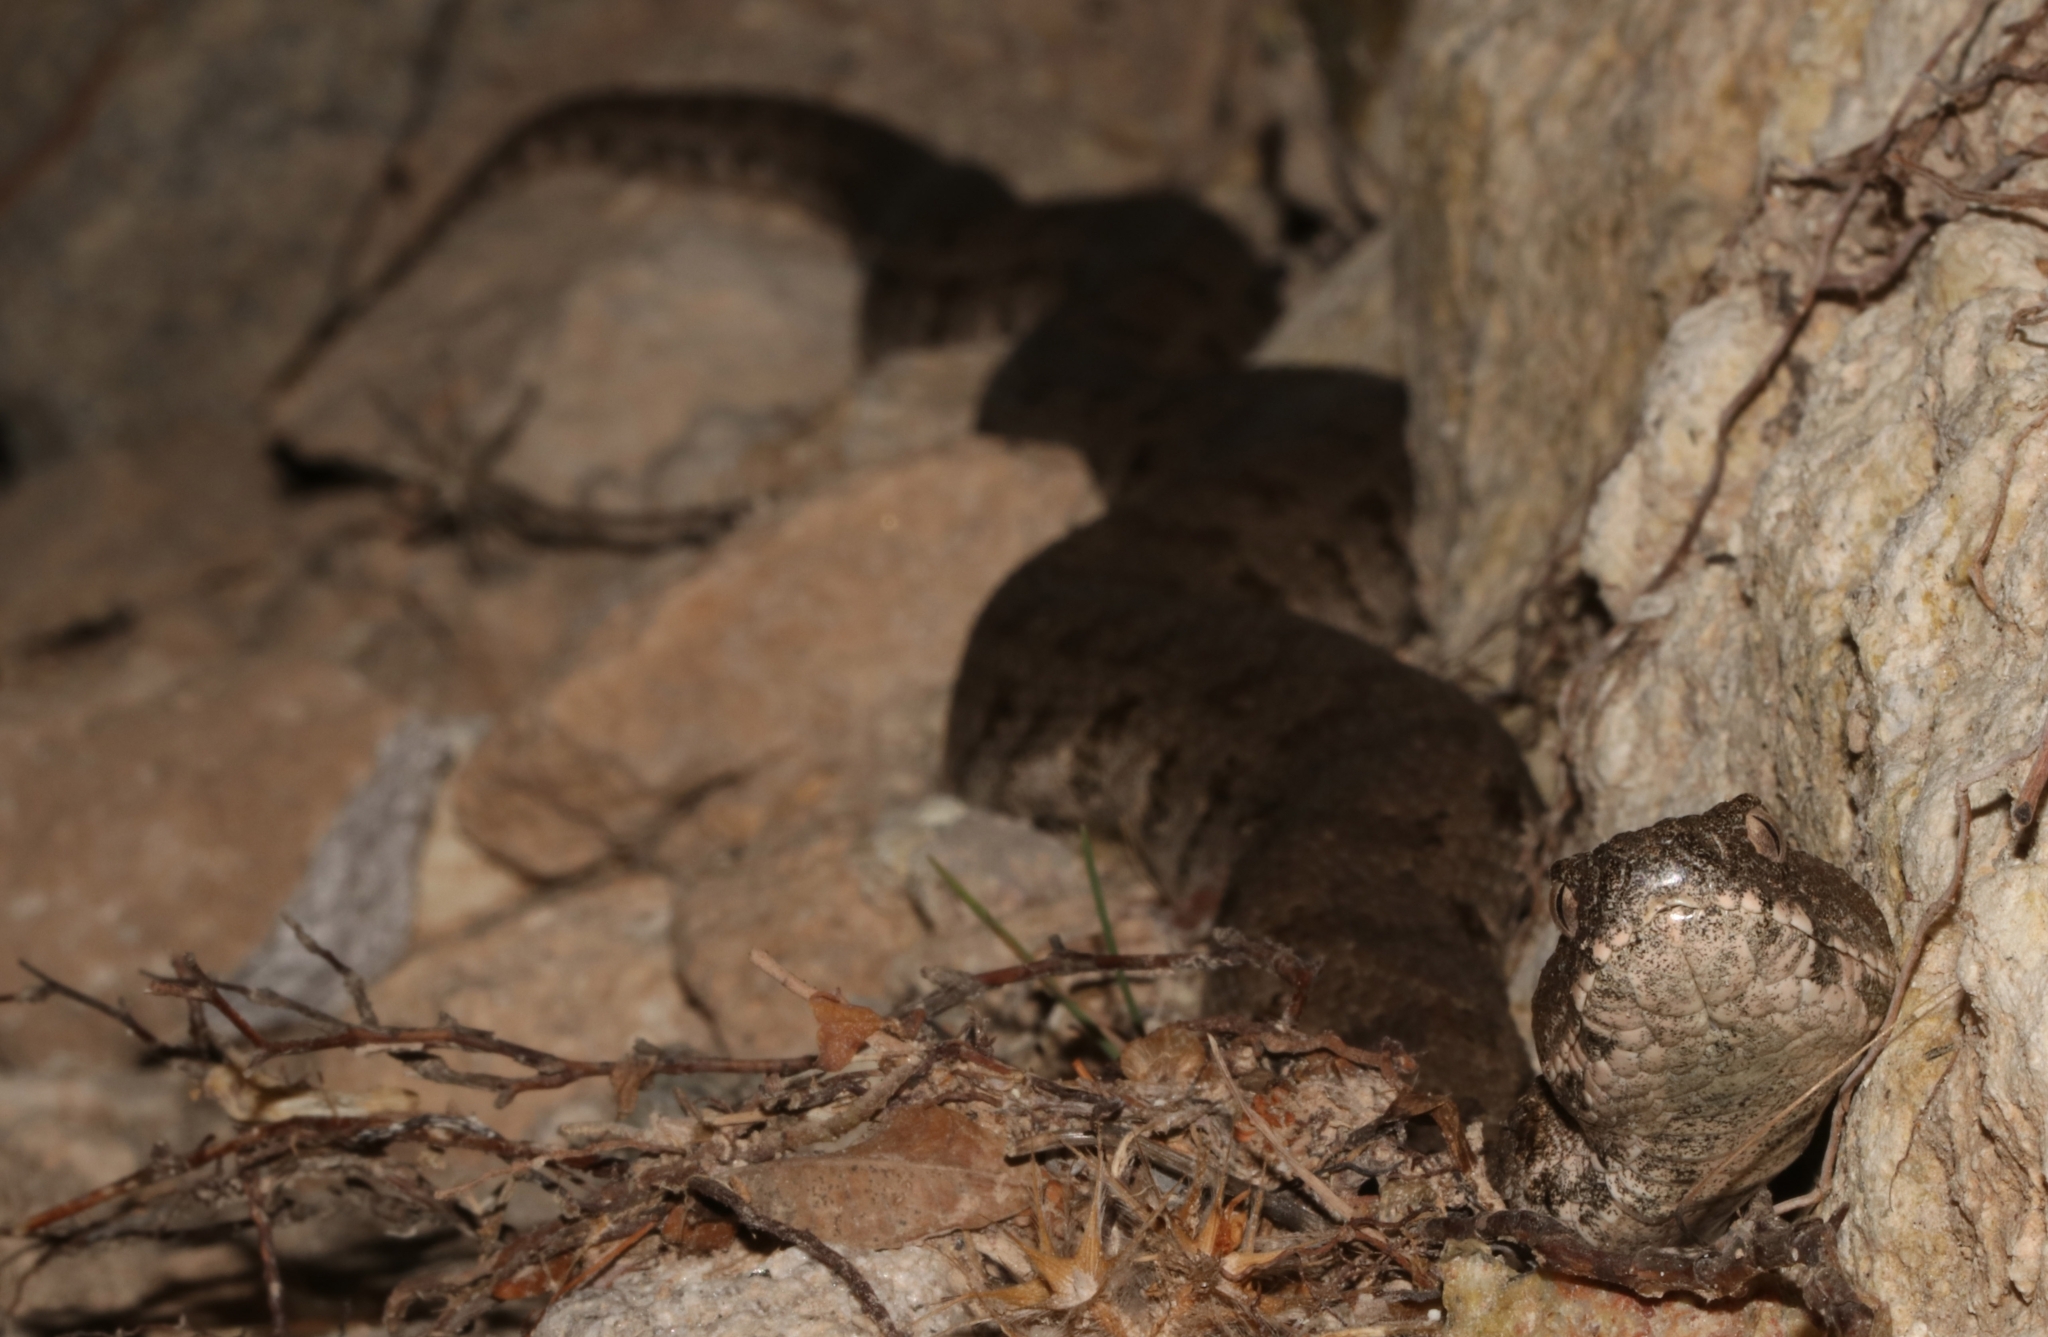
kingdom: Animalia
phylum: Chordata
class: Squamata
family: Viperidae
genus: Macrovipera
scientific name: Macrovipera lebetinus
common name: Levantine viper
